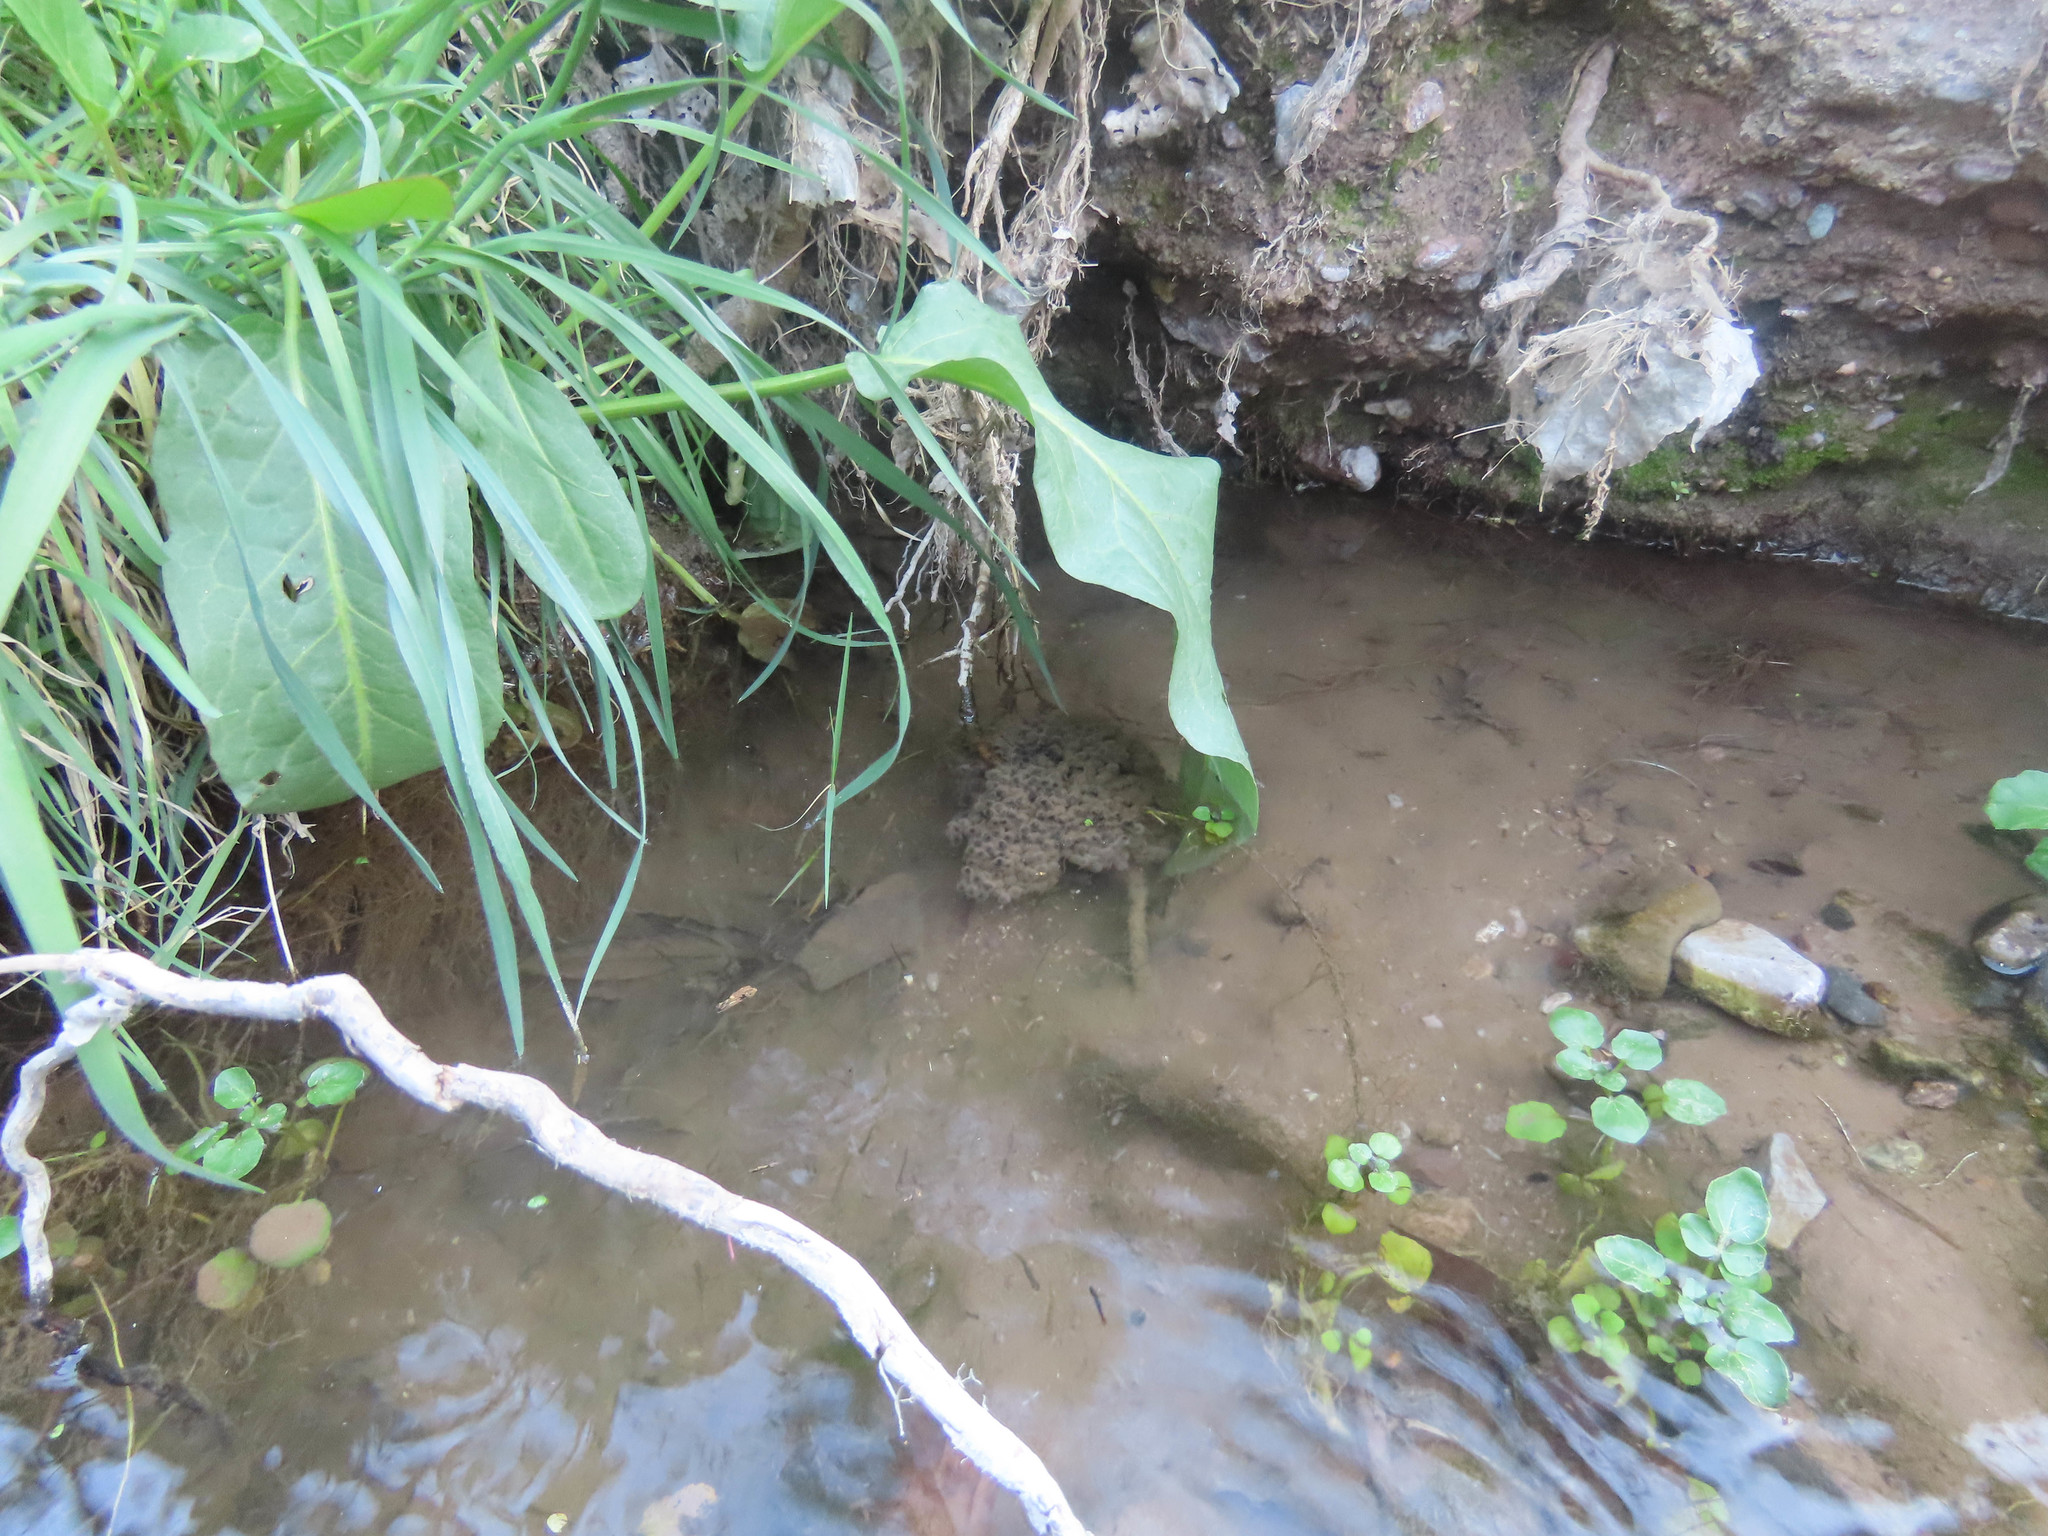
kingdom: Animalia
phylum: Chordata
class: Amphibia
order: Anura
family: Ranidae
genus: Lithobates
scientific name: Lithobates yavapaiensis
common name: Lowland leopard frog
